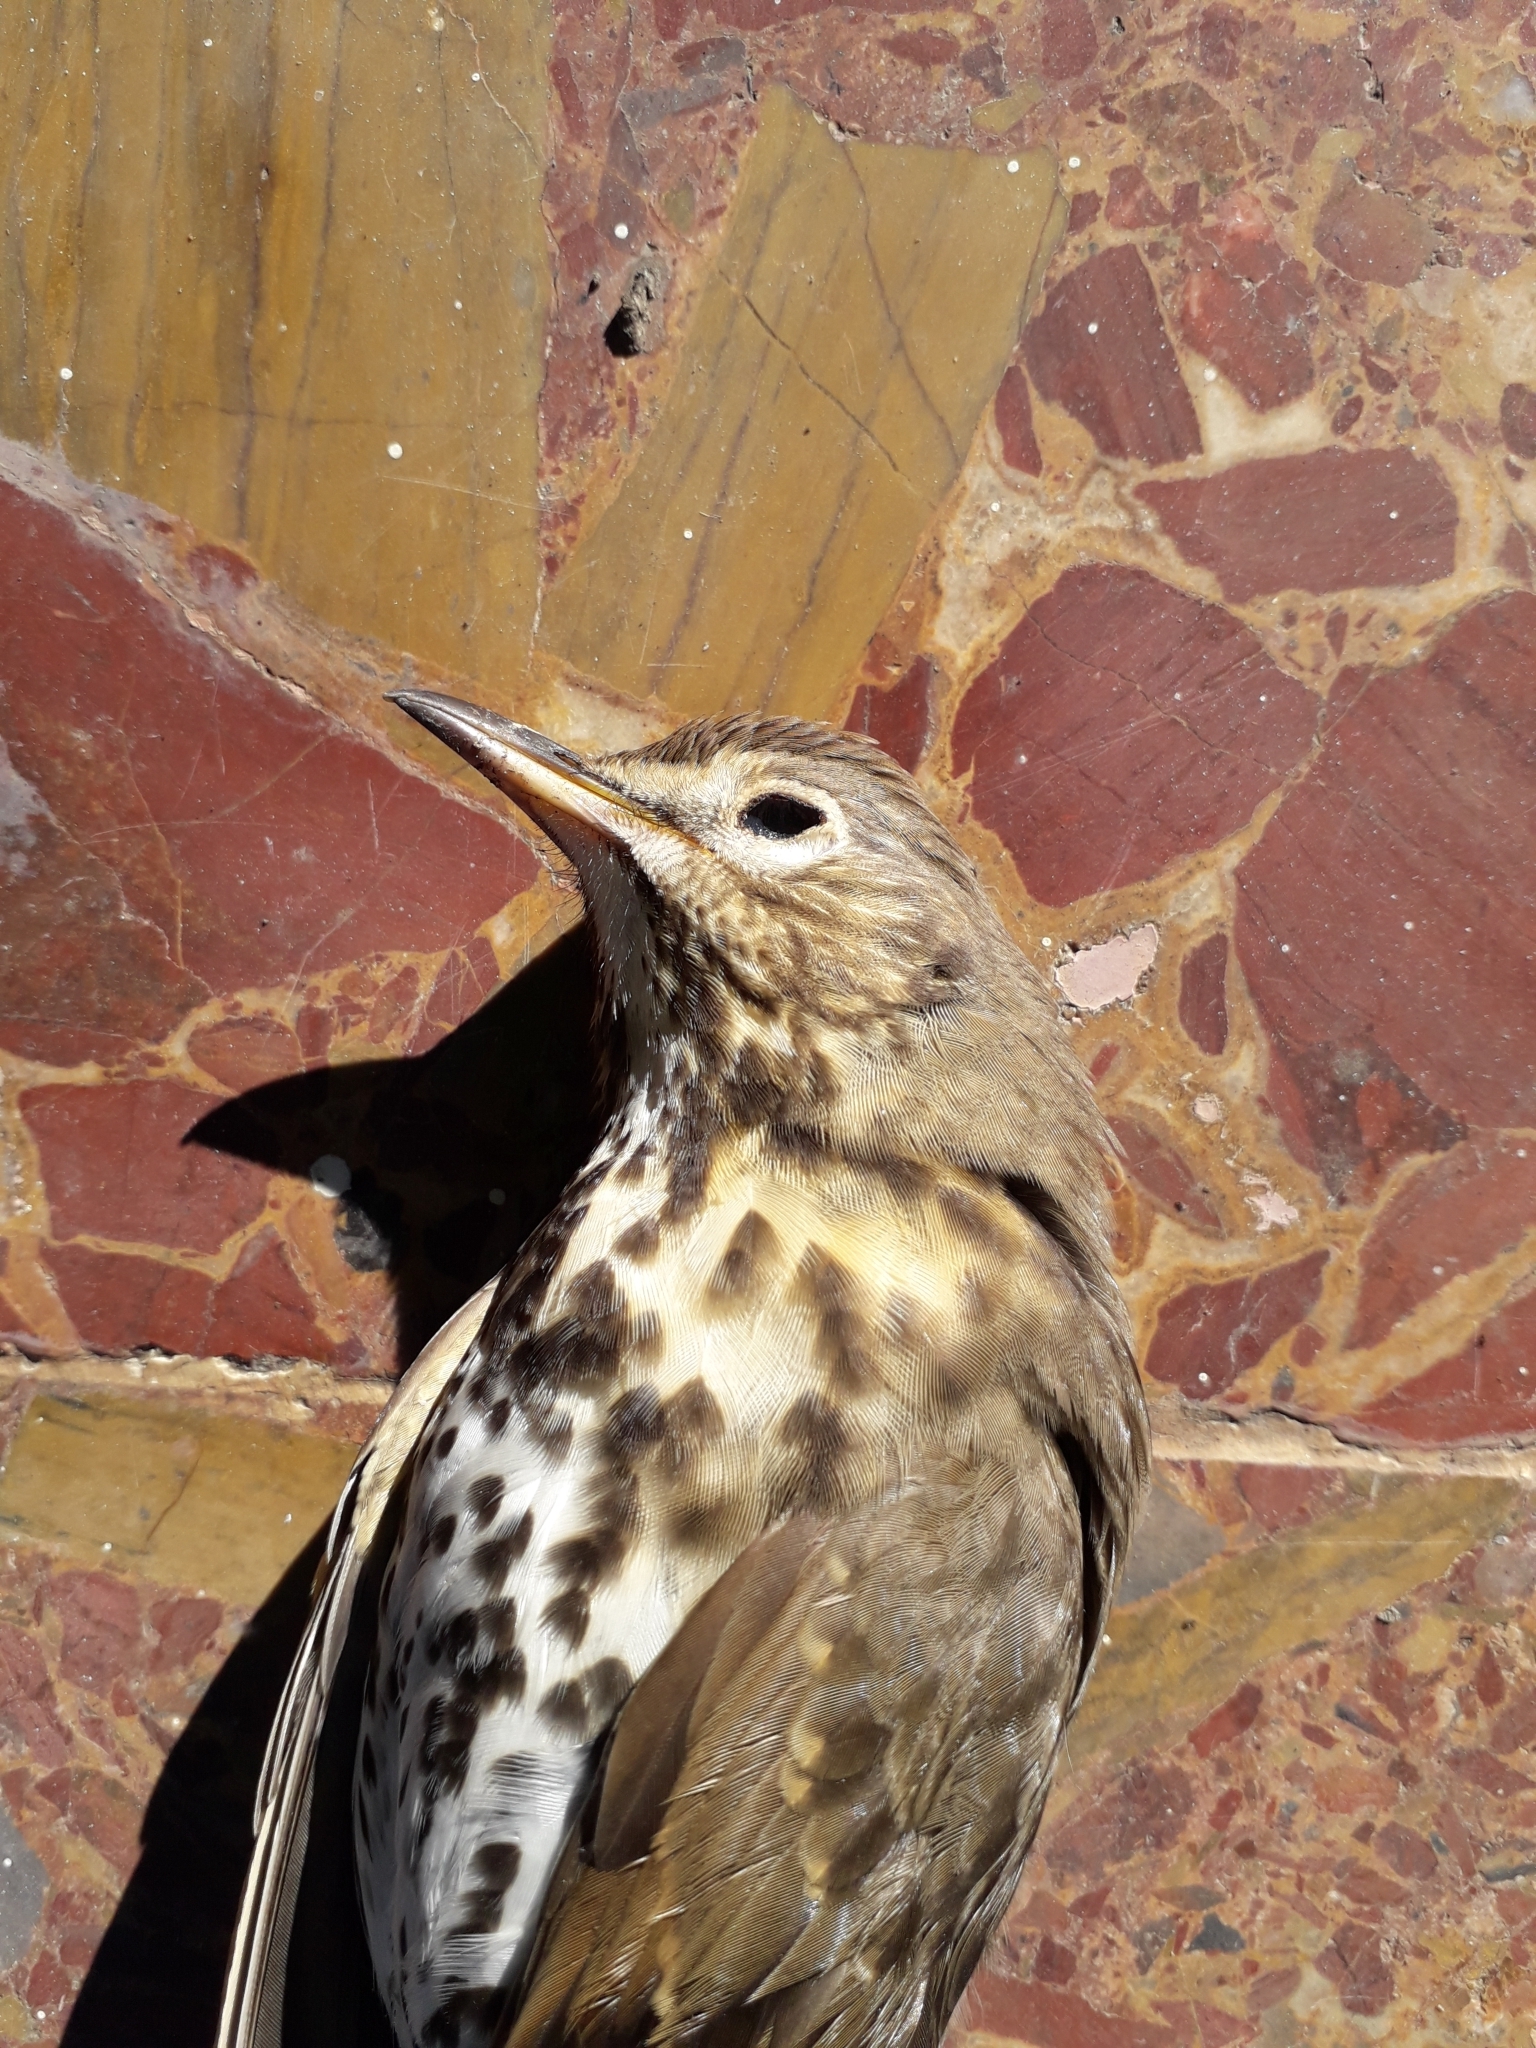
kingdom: Animalia
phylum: Chordata
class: Aves
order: Passeriformes
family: Turdidae
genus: Turdus
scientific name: Turdus philomelos
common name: Song thrush
